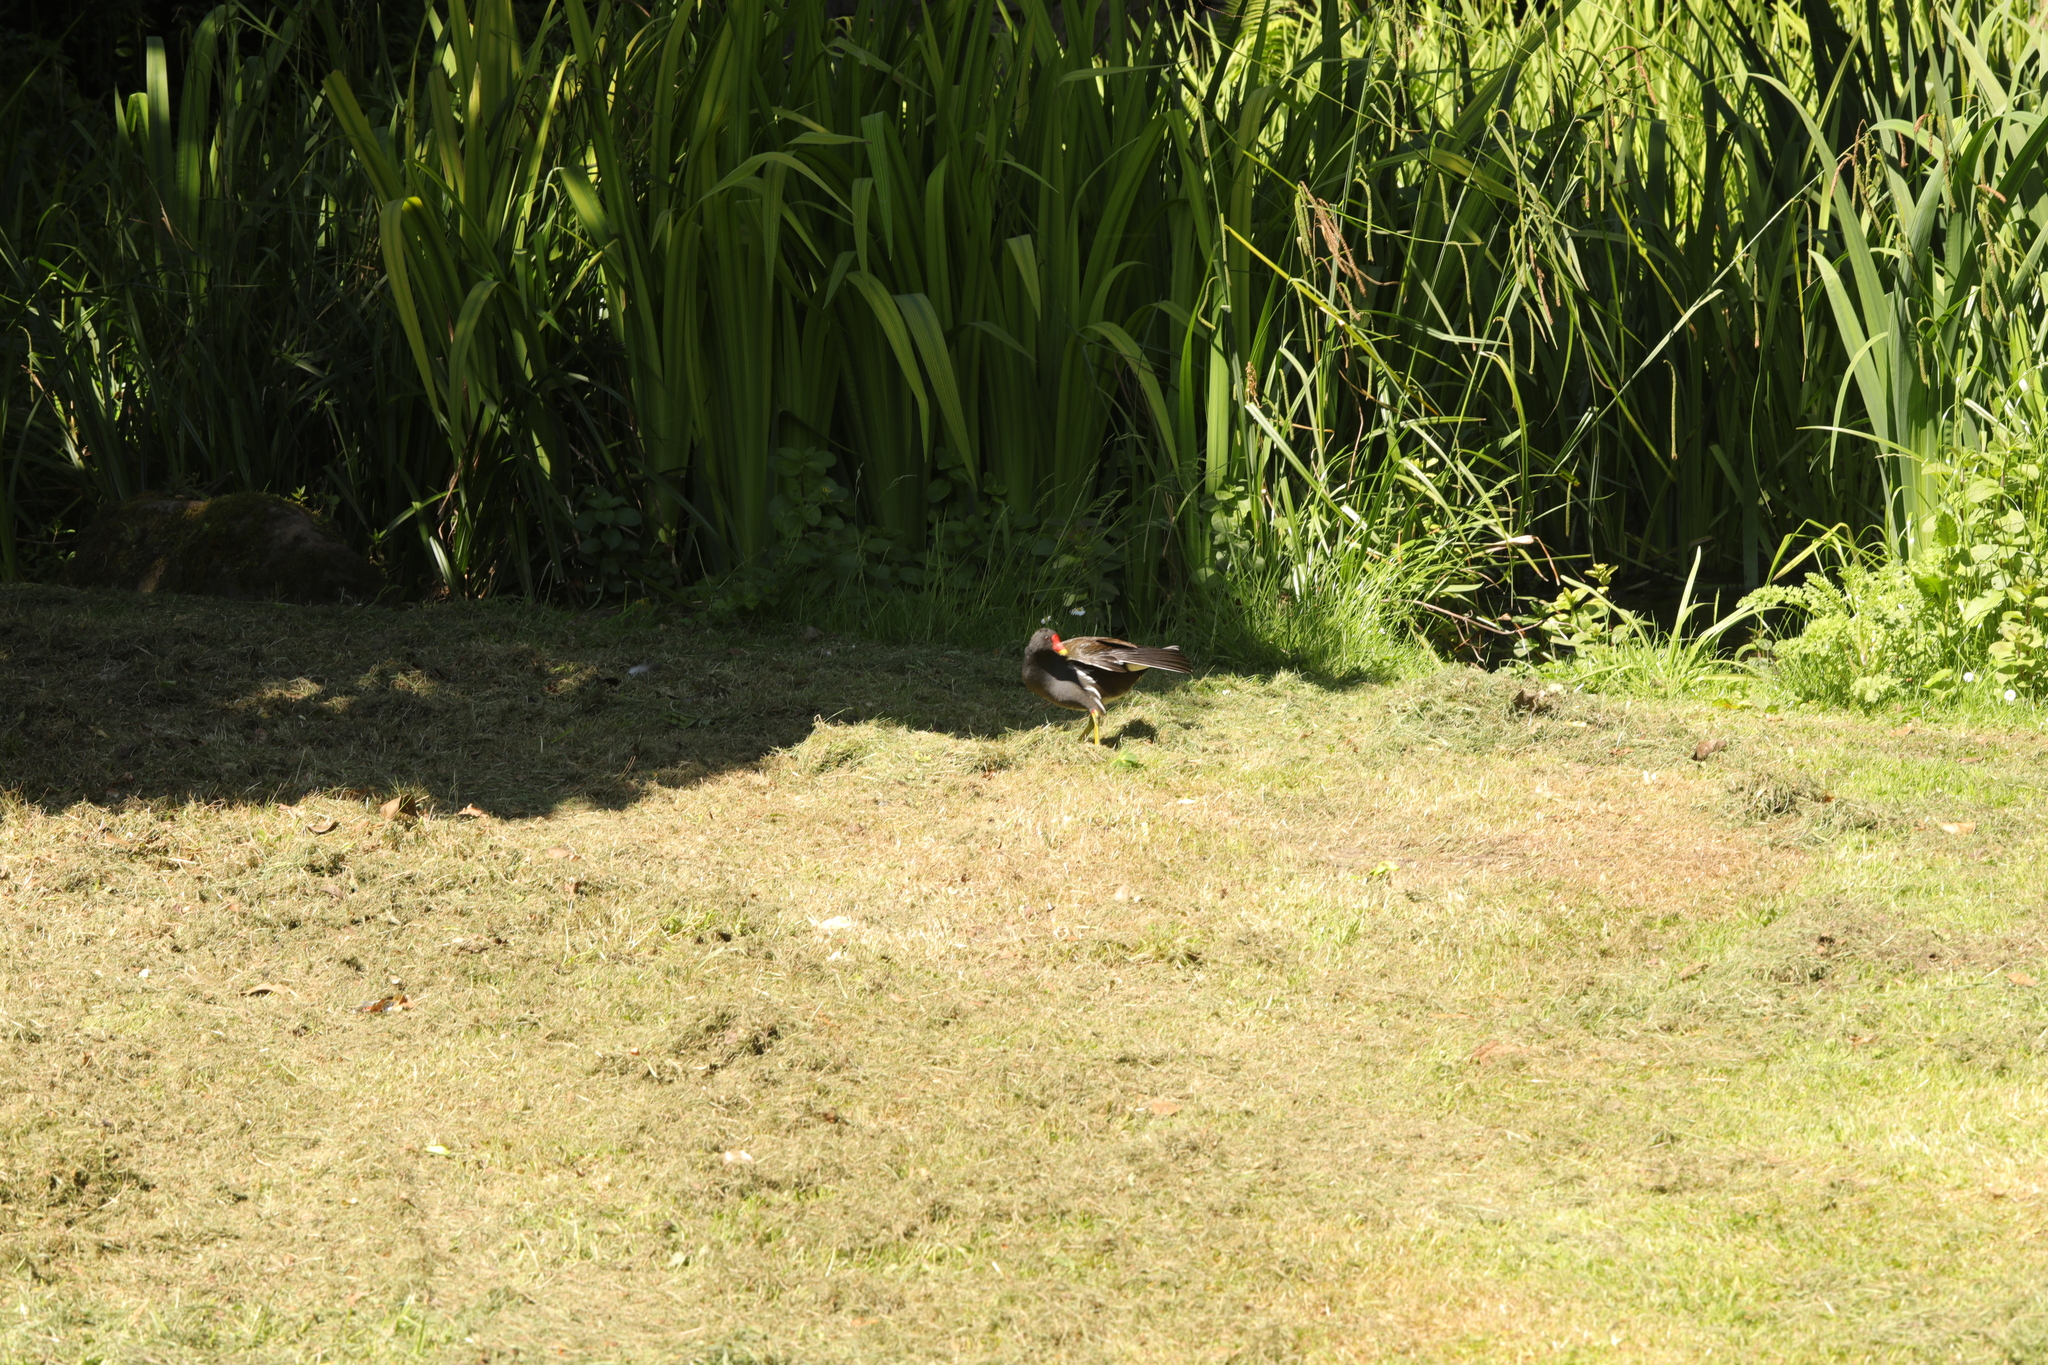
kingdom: Animalia
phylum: Chordata
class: Aves
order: Gruiformes
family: Rallidae
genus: Gallinula
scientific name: Gallinula chloropus
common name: Common moorhen
